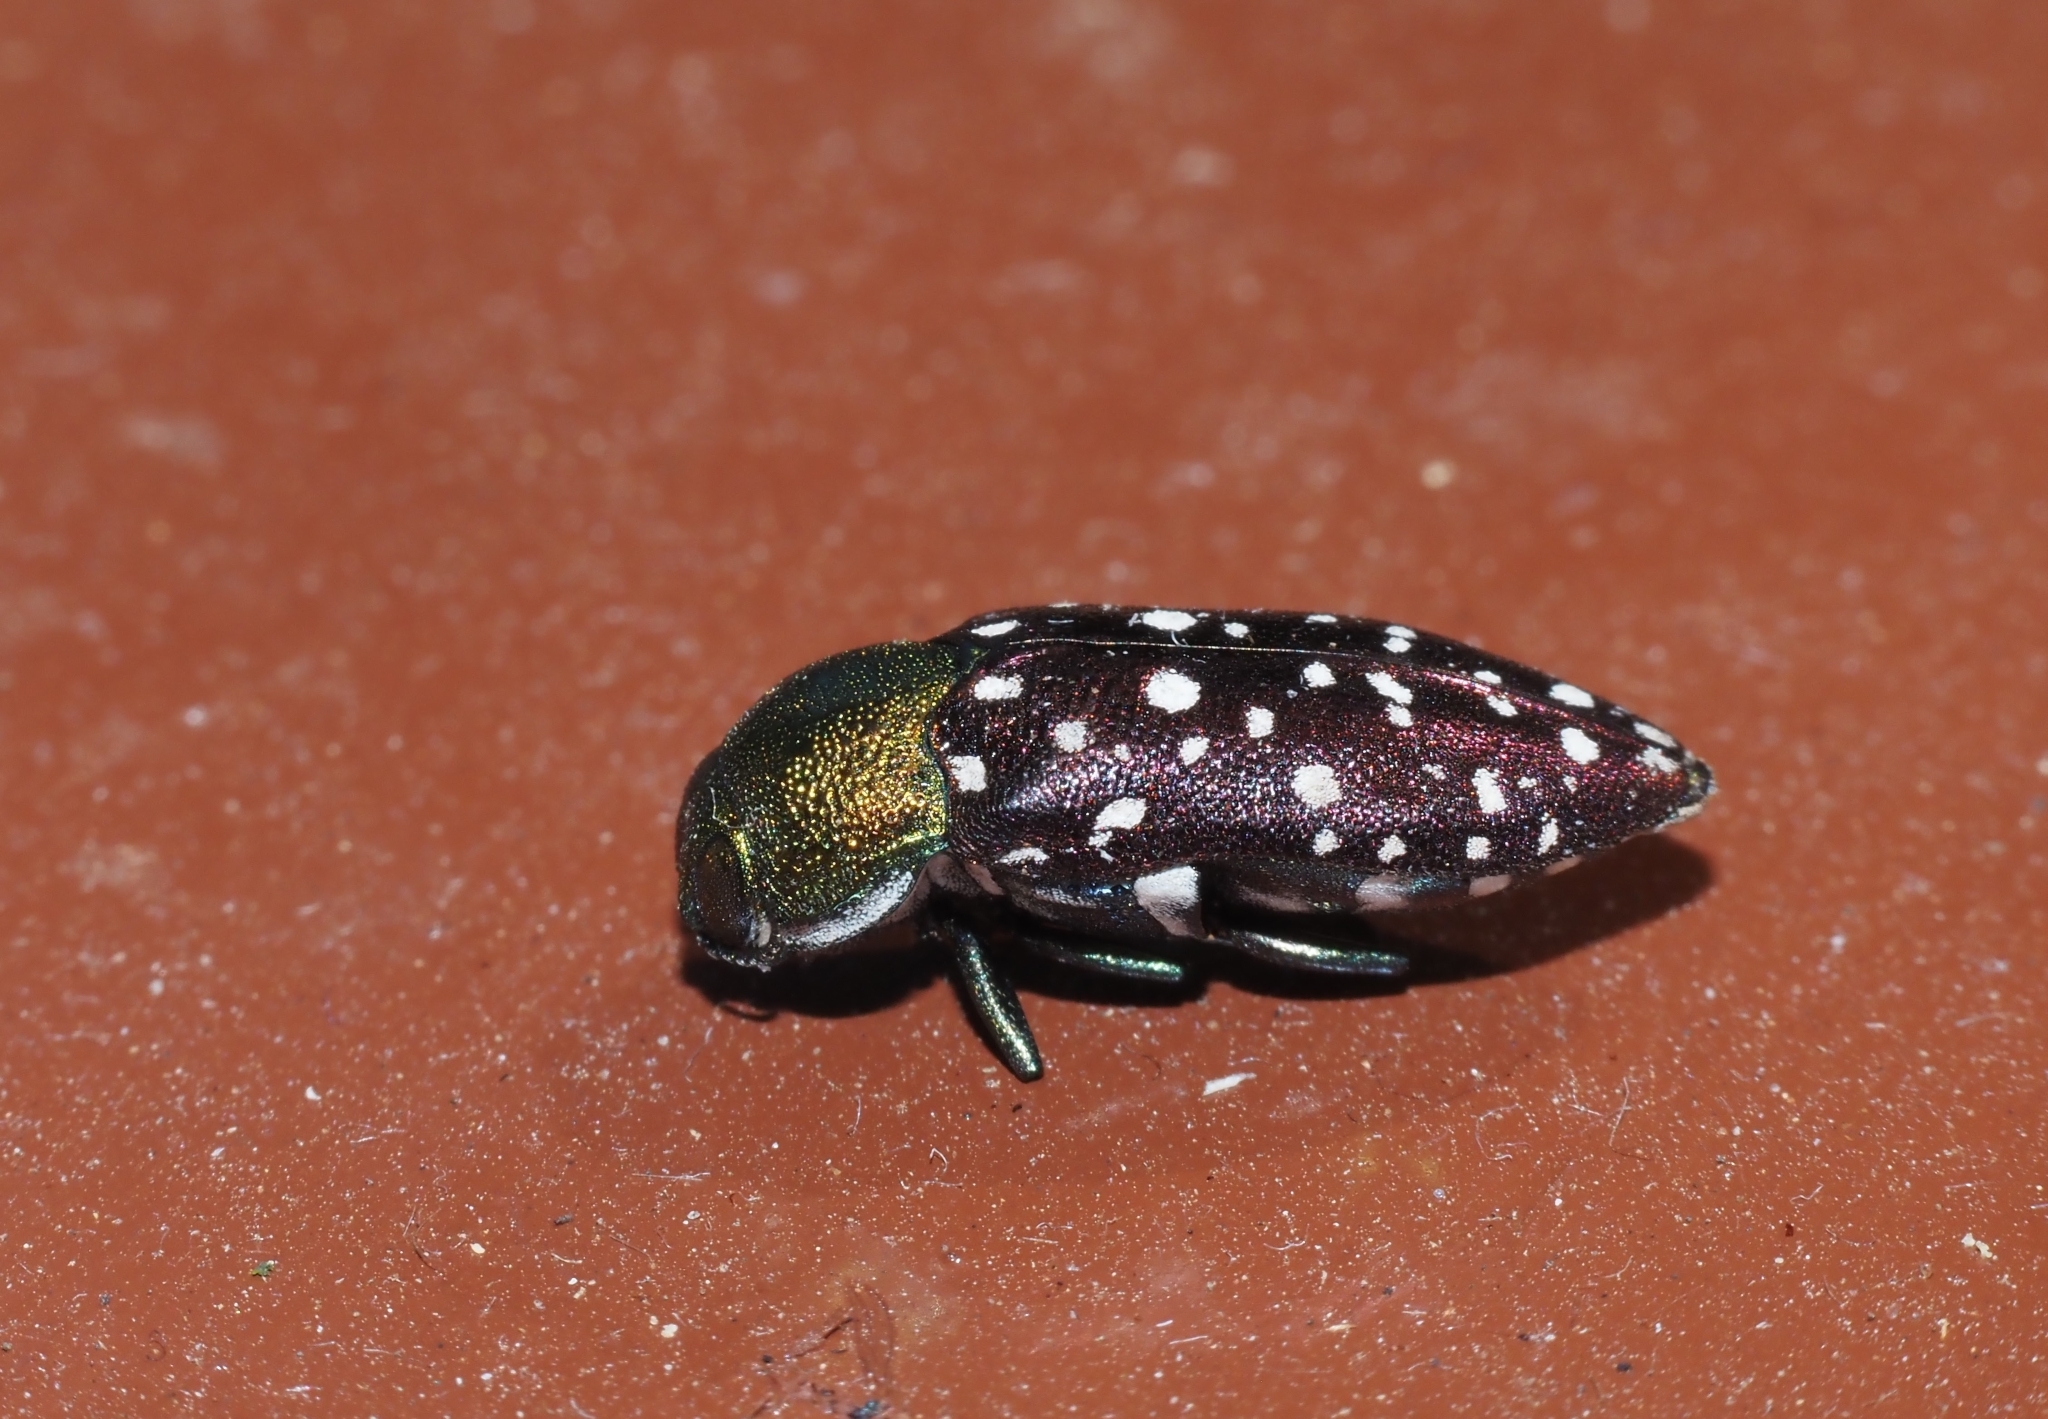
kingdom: Animalia
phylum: Arthropoda
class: Insecta
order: Coleoptera
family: Buprestidae
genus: Diphucrania
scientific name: Diphucrania leucosticta
